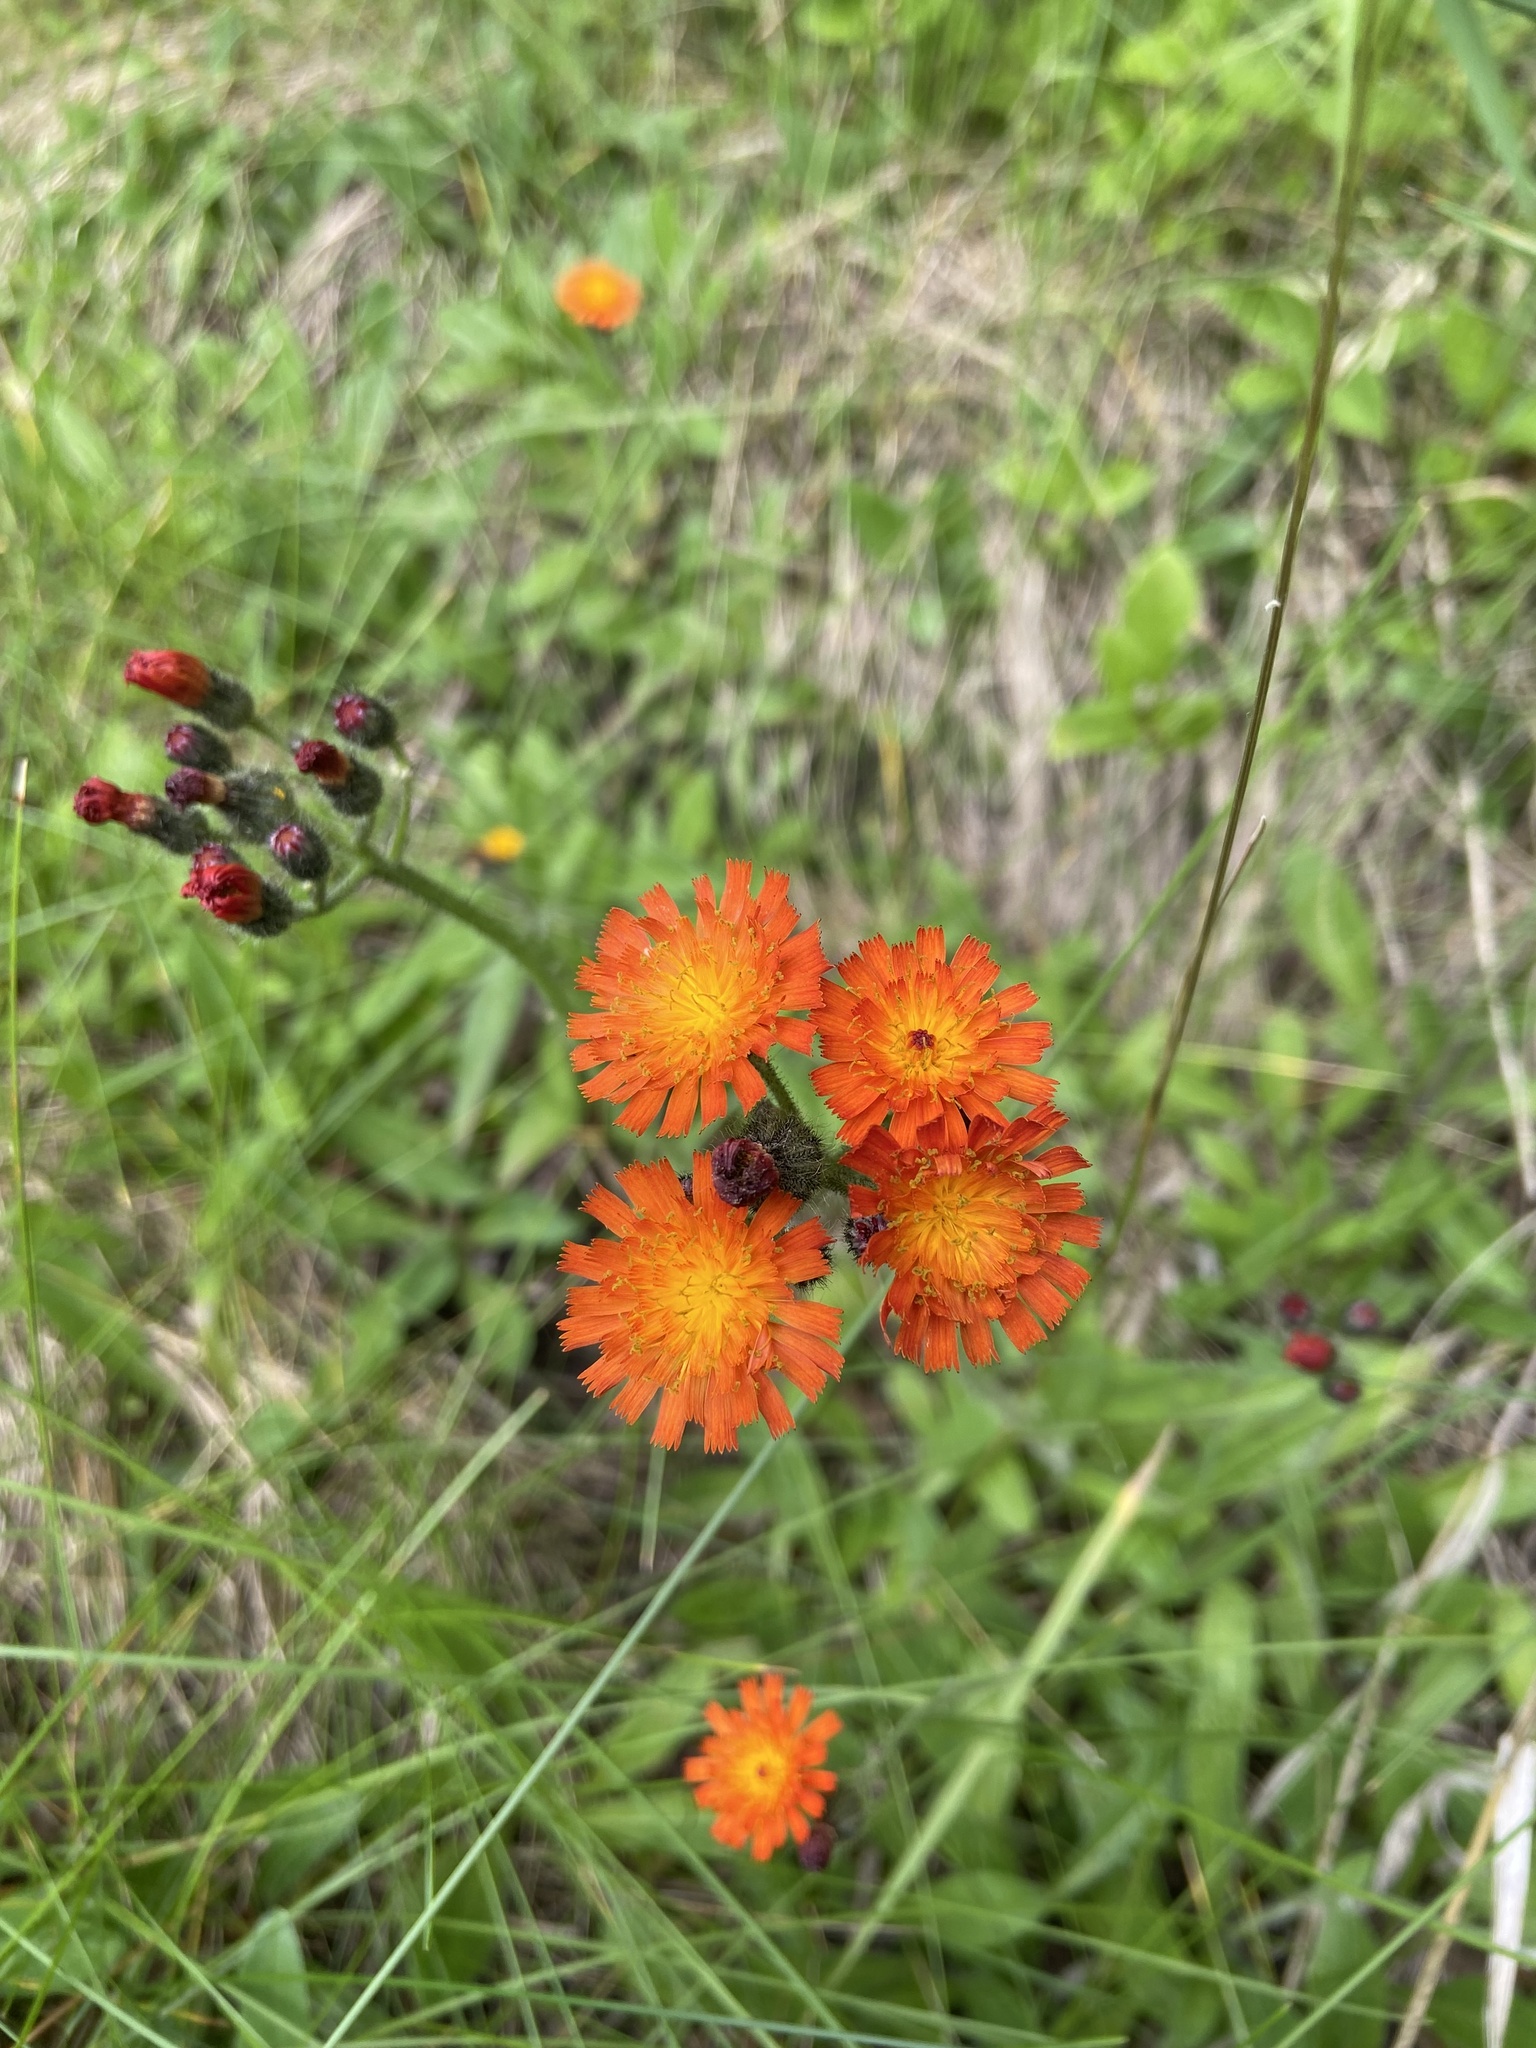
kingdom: Plantae
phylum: Tracheophyta
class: Magnoliopsida
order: Asterales
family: Asteraceae
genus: Pilosella
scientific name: Pilosella aurantiaca
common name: Fox-and-cubs
